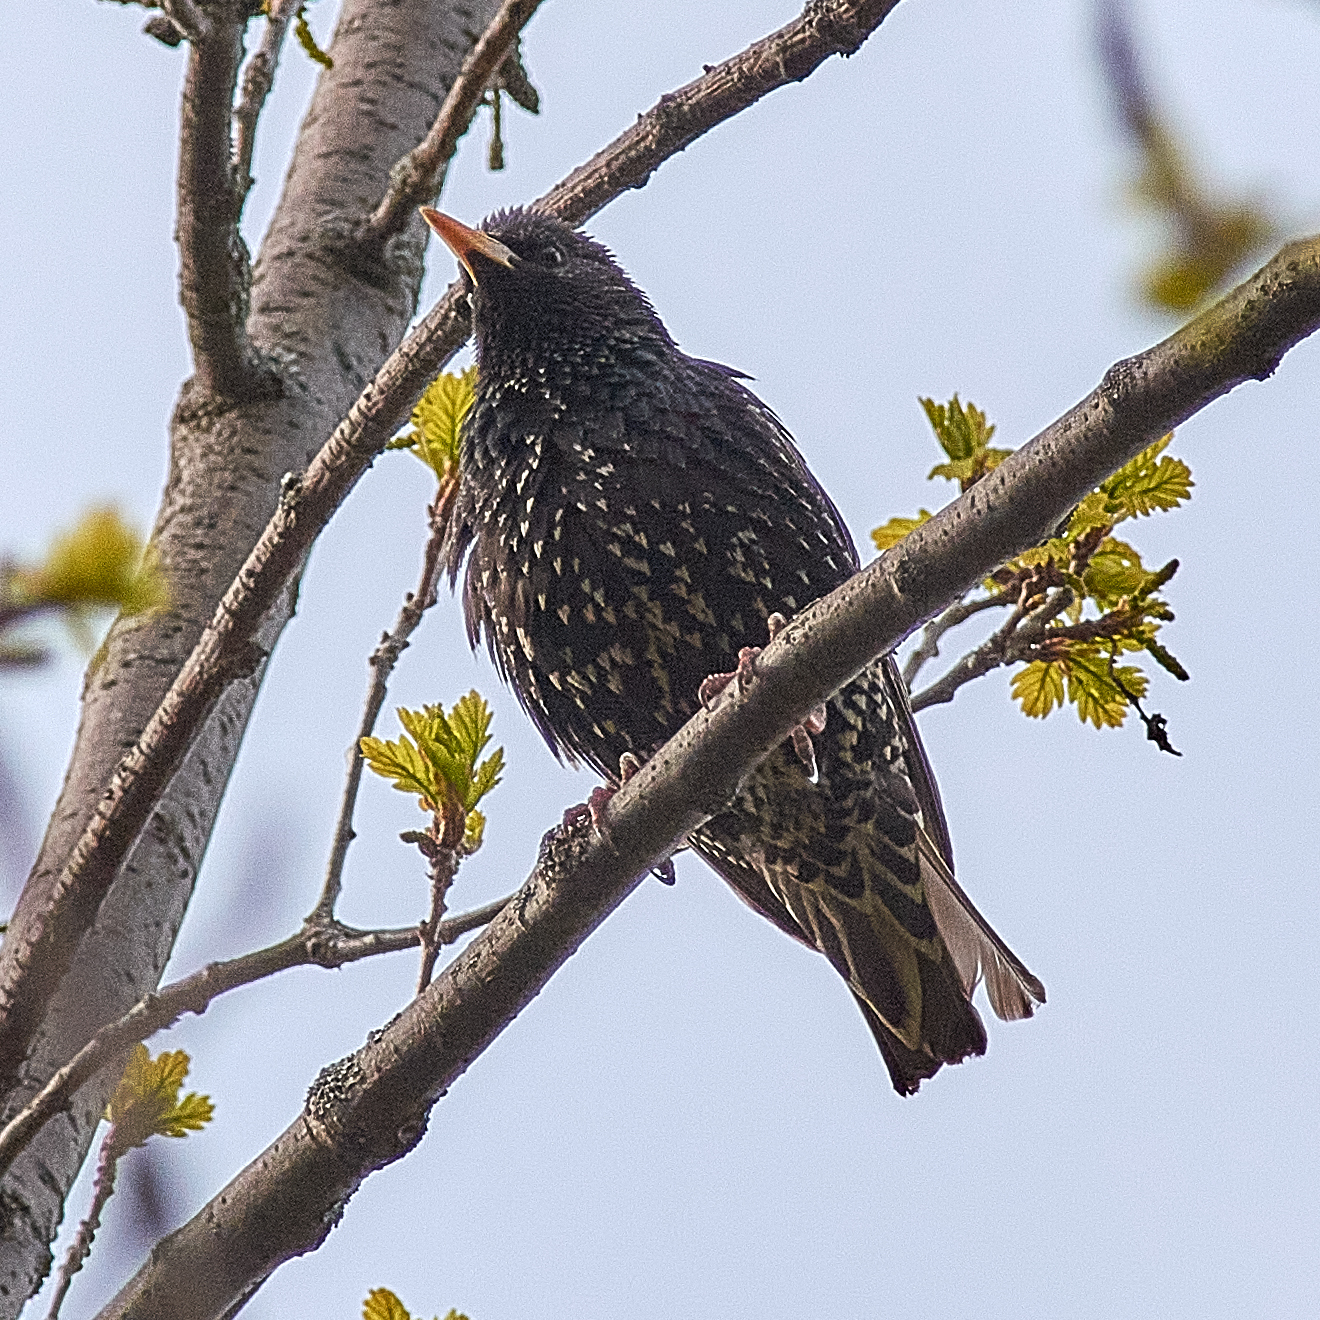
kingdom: Animalia
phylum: Chordata
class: Aves
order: Passeriformes
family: Sturnidae
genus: Sturnus
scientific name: Sturnus vulgaris
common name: Common starling
